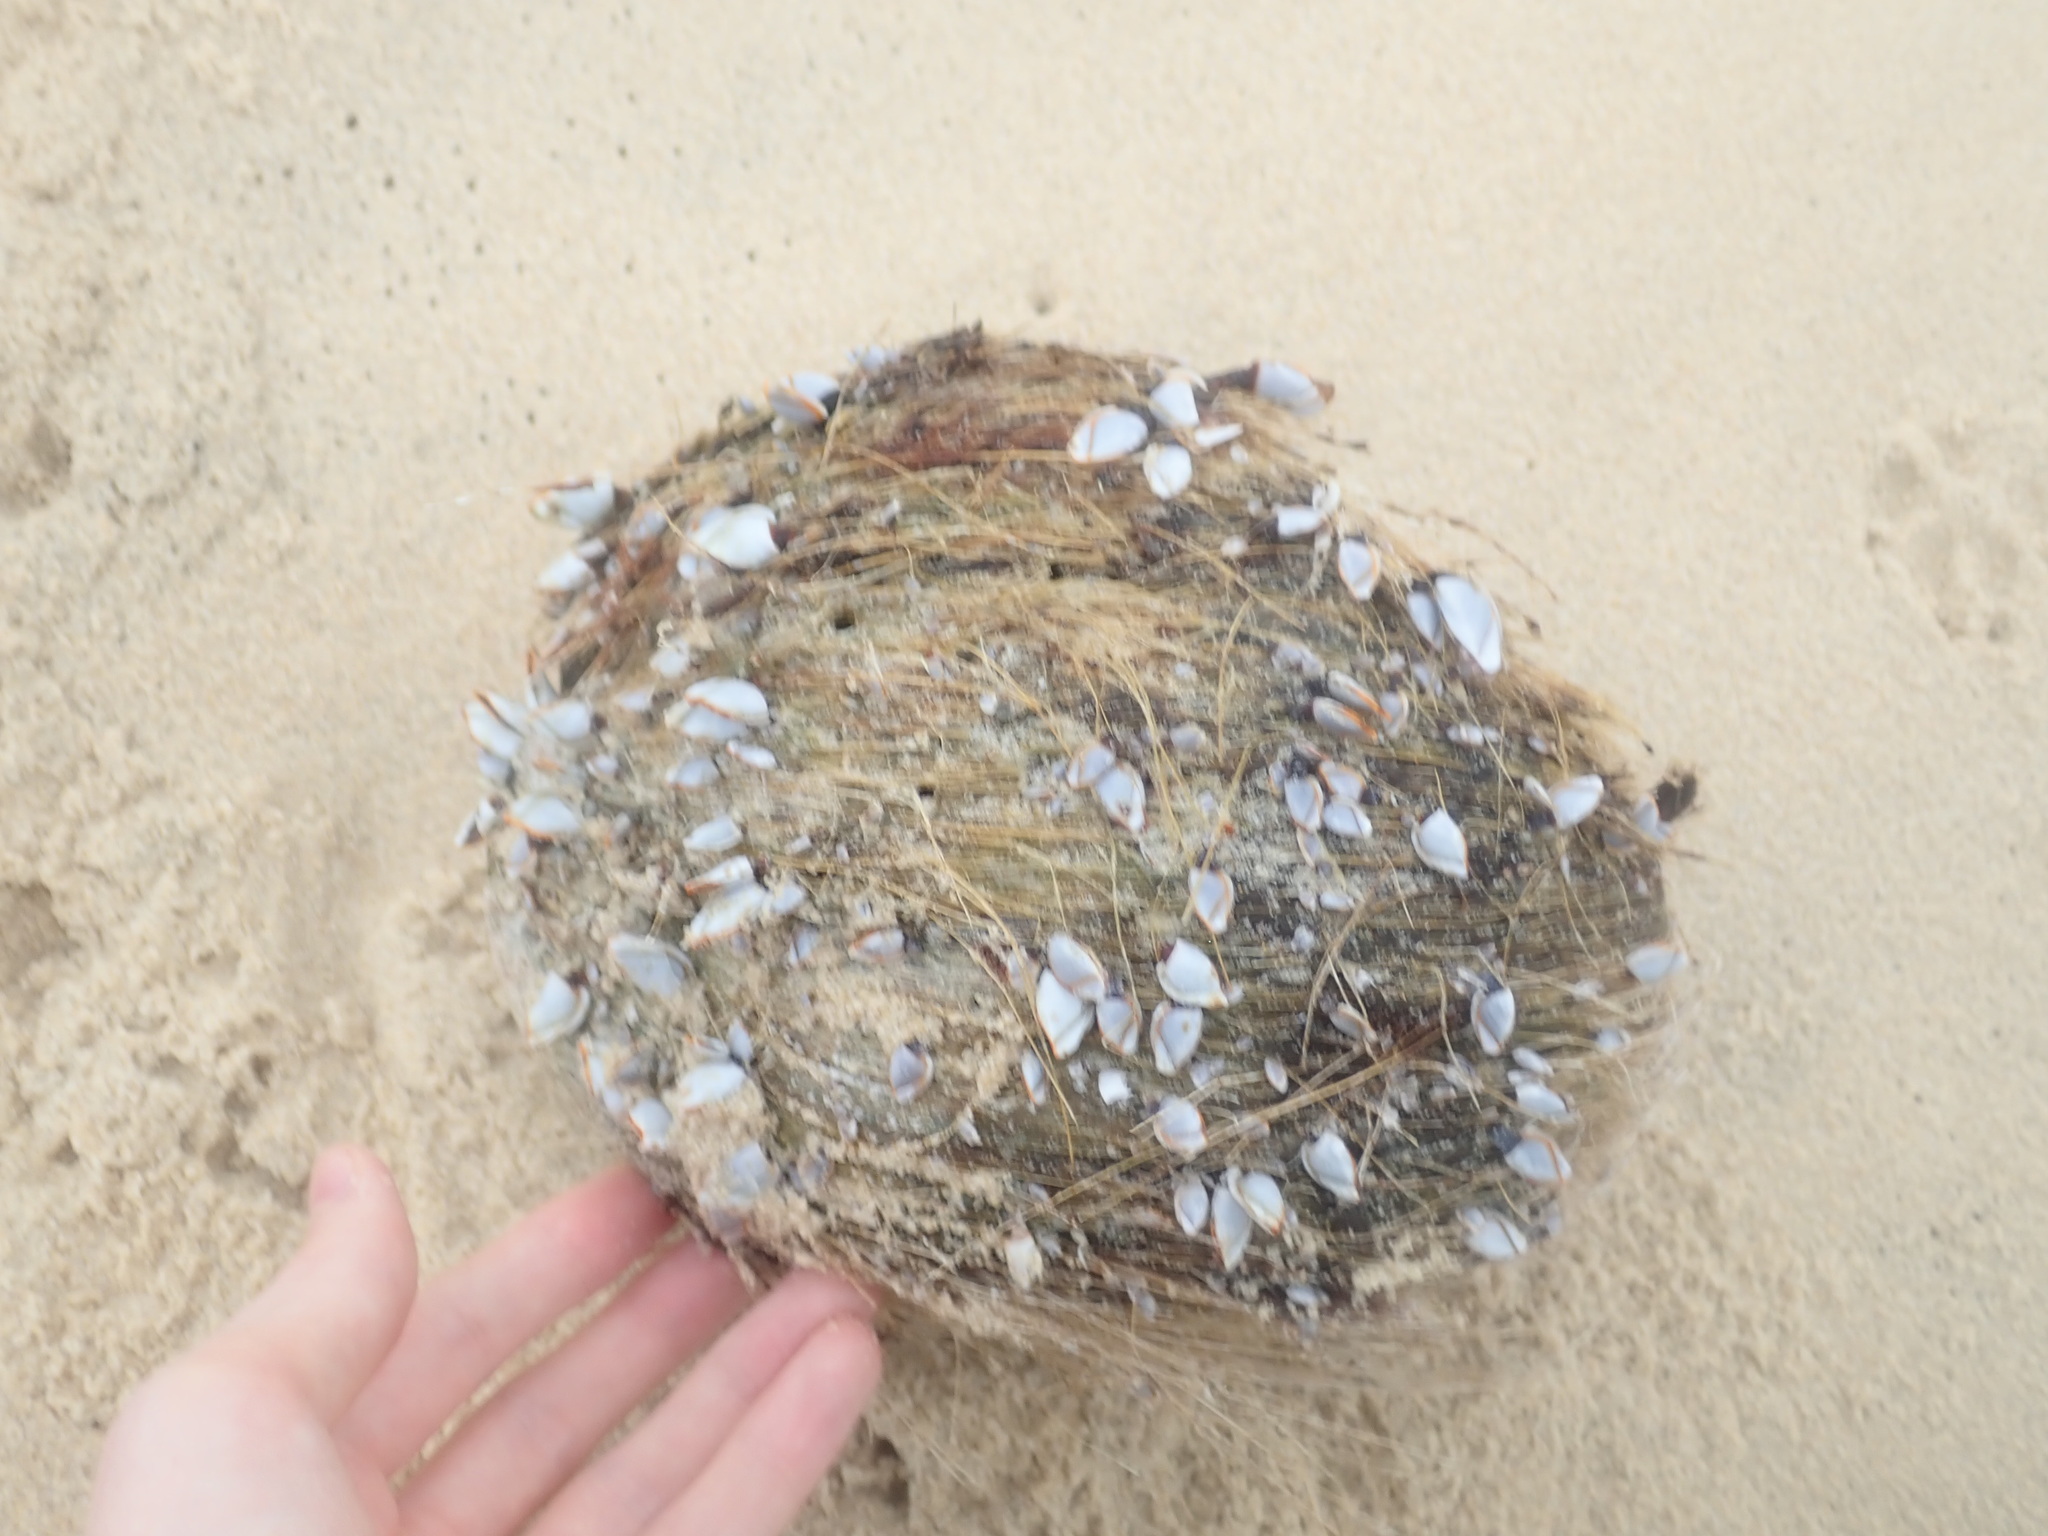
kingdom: Animalia
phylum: Arthropoda
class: Maxillopoda
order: Pedunculata
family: Lepadidae
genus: Lepas
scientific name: Lepas anserifera
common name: Goose barnacle
